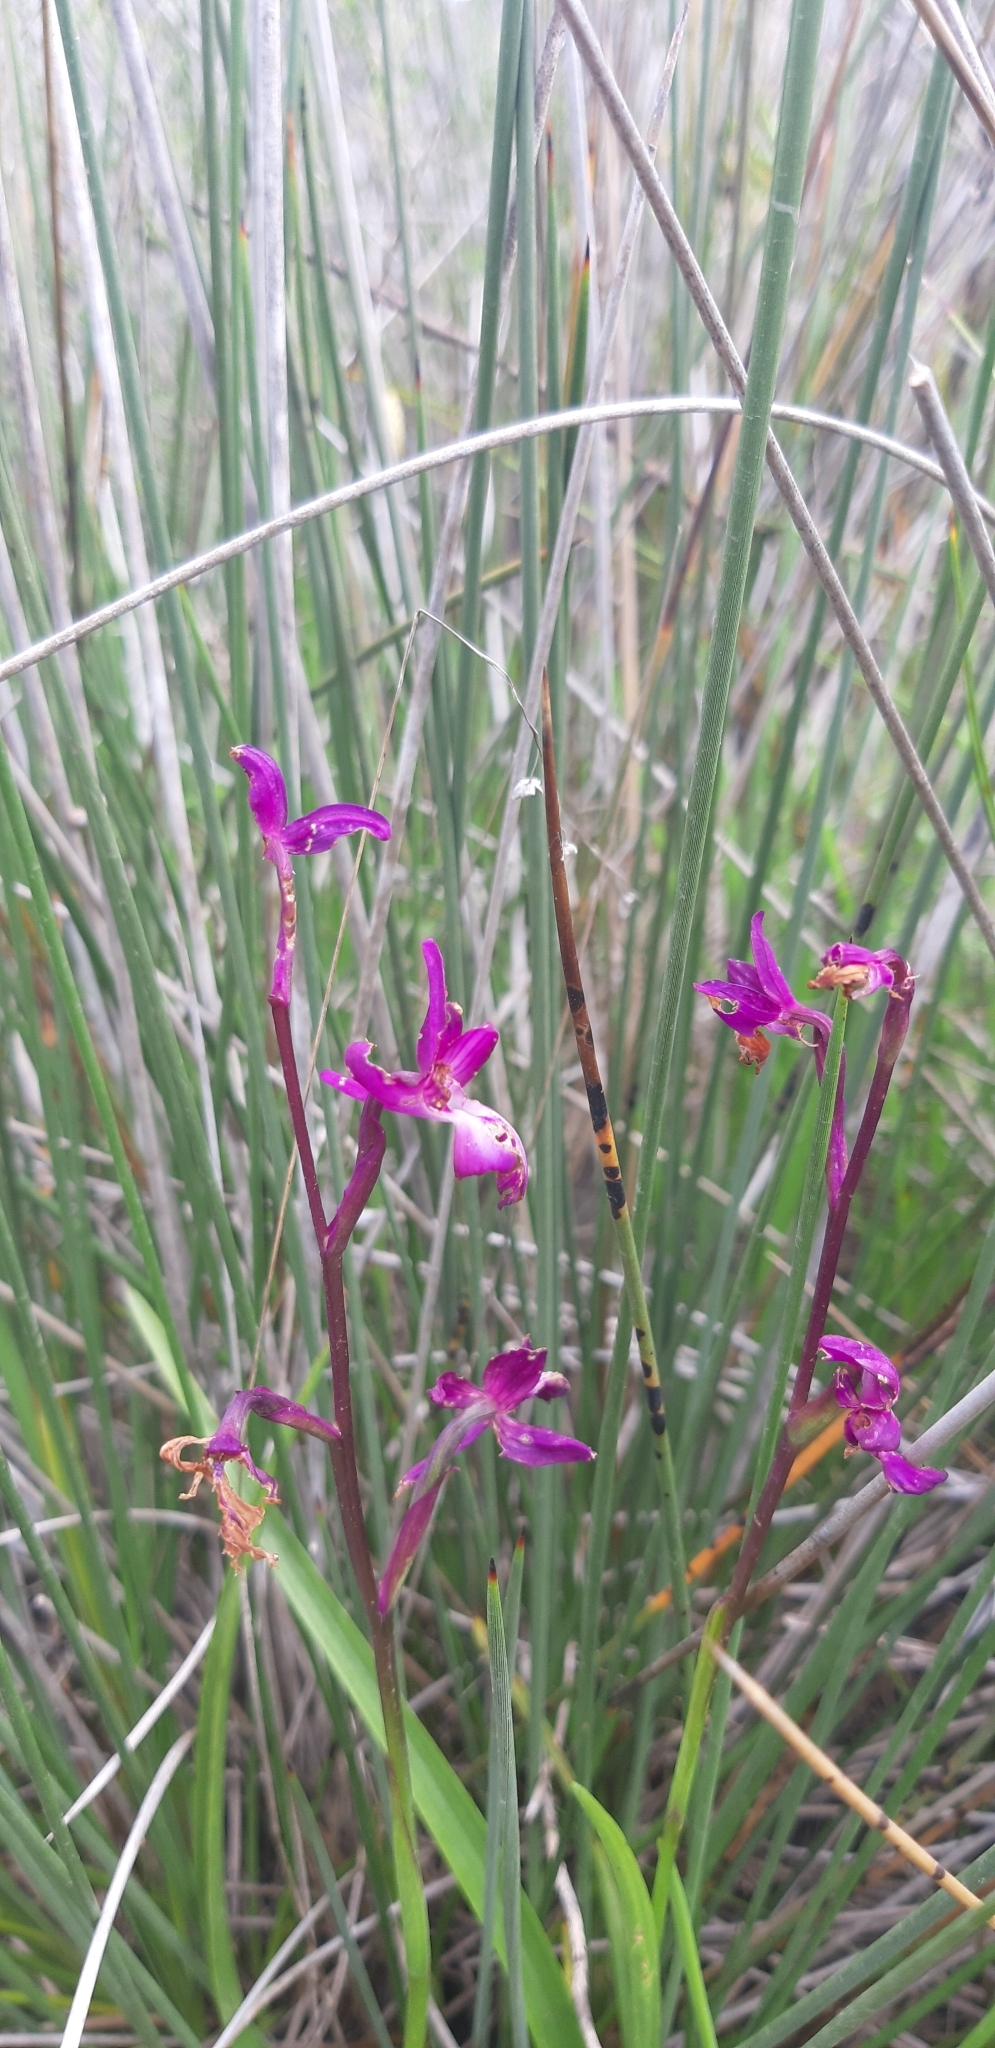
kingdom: Plantae
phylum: Tracheophyta
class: Liliopsida
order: Asparagales
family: Orchidaceae
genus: Anacamptis
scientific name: Anacamptis laxiflora
